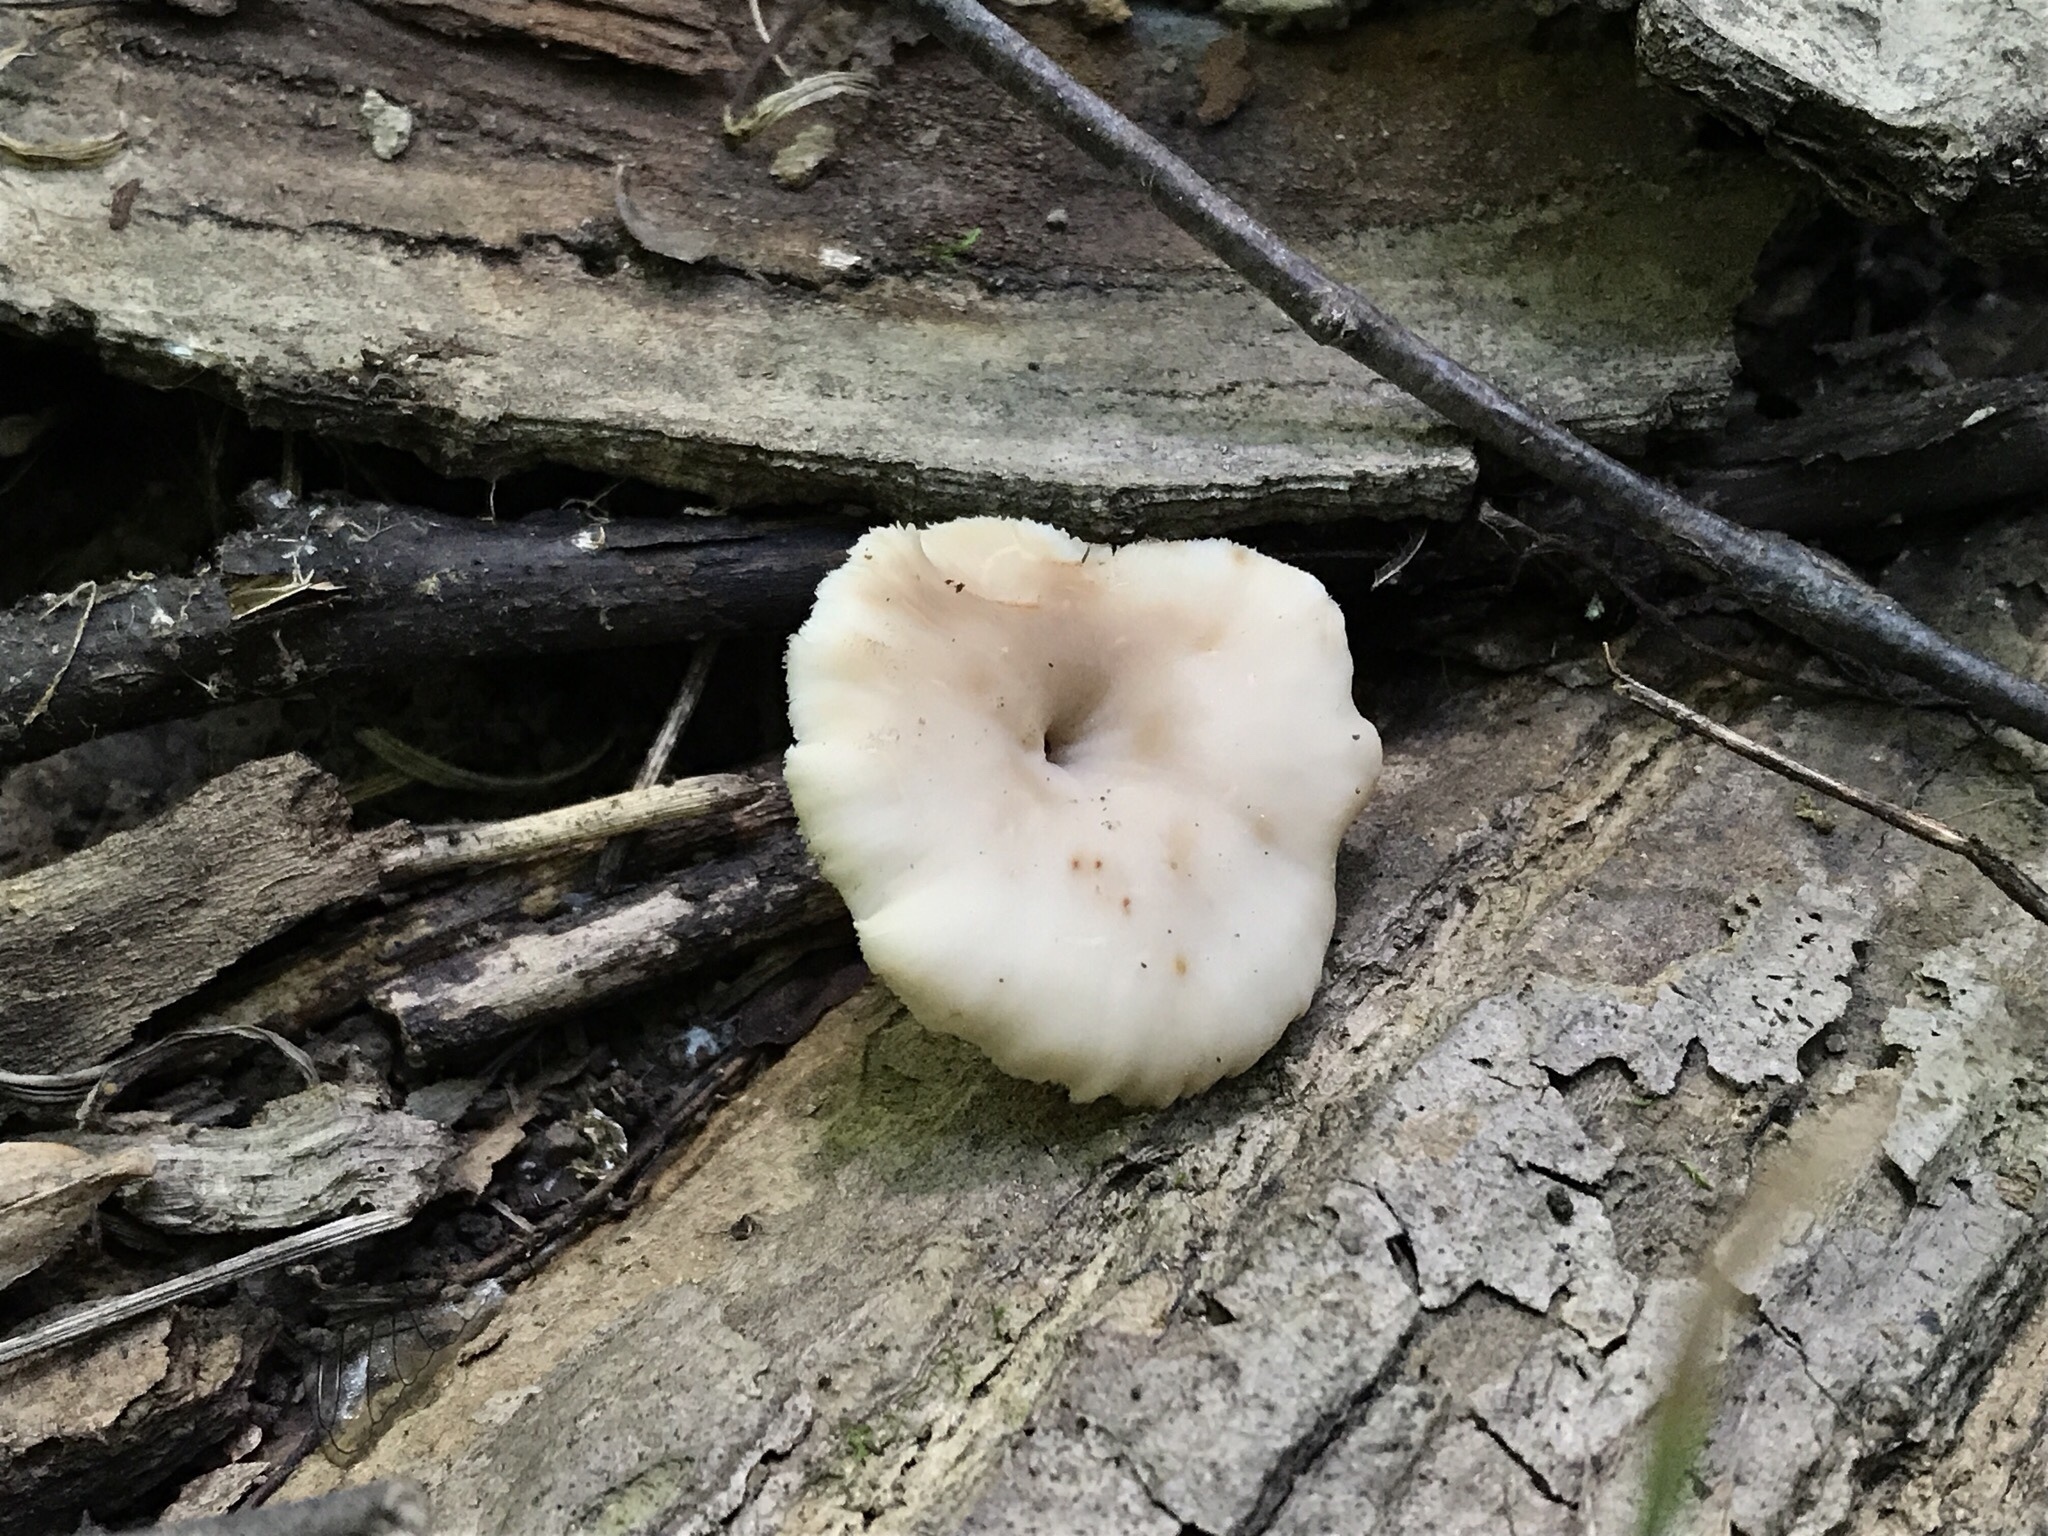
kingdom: Fungi
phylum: Basidiomycota
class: Agaricomycetes
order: Russulales
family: Auriscalpiaceae
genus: Lentinellus
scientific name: Lentinellus subaustralis
